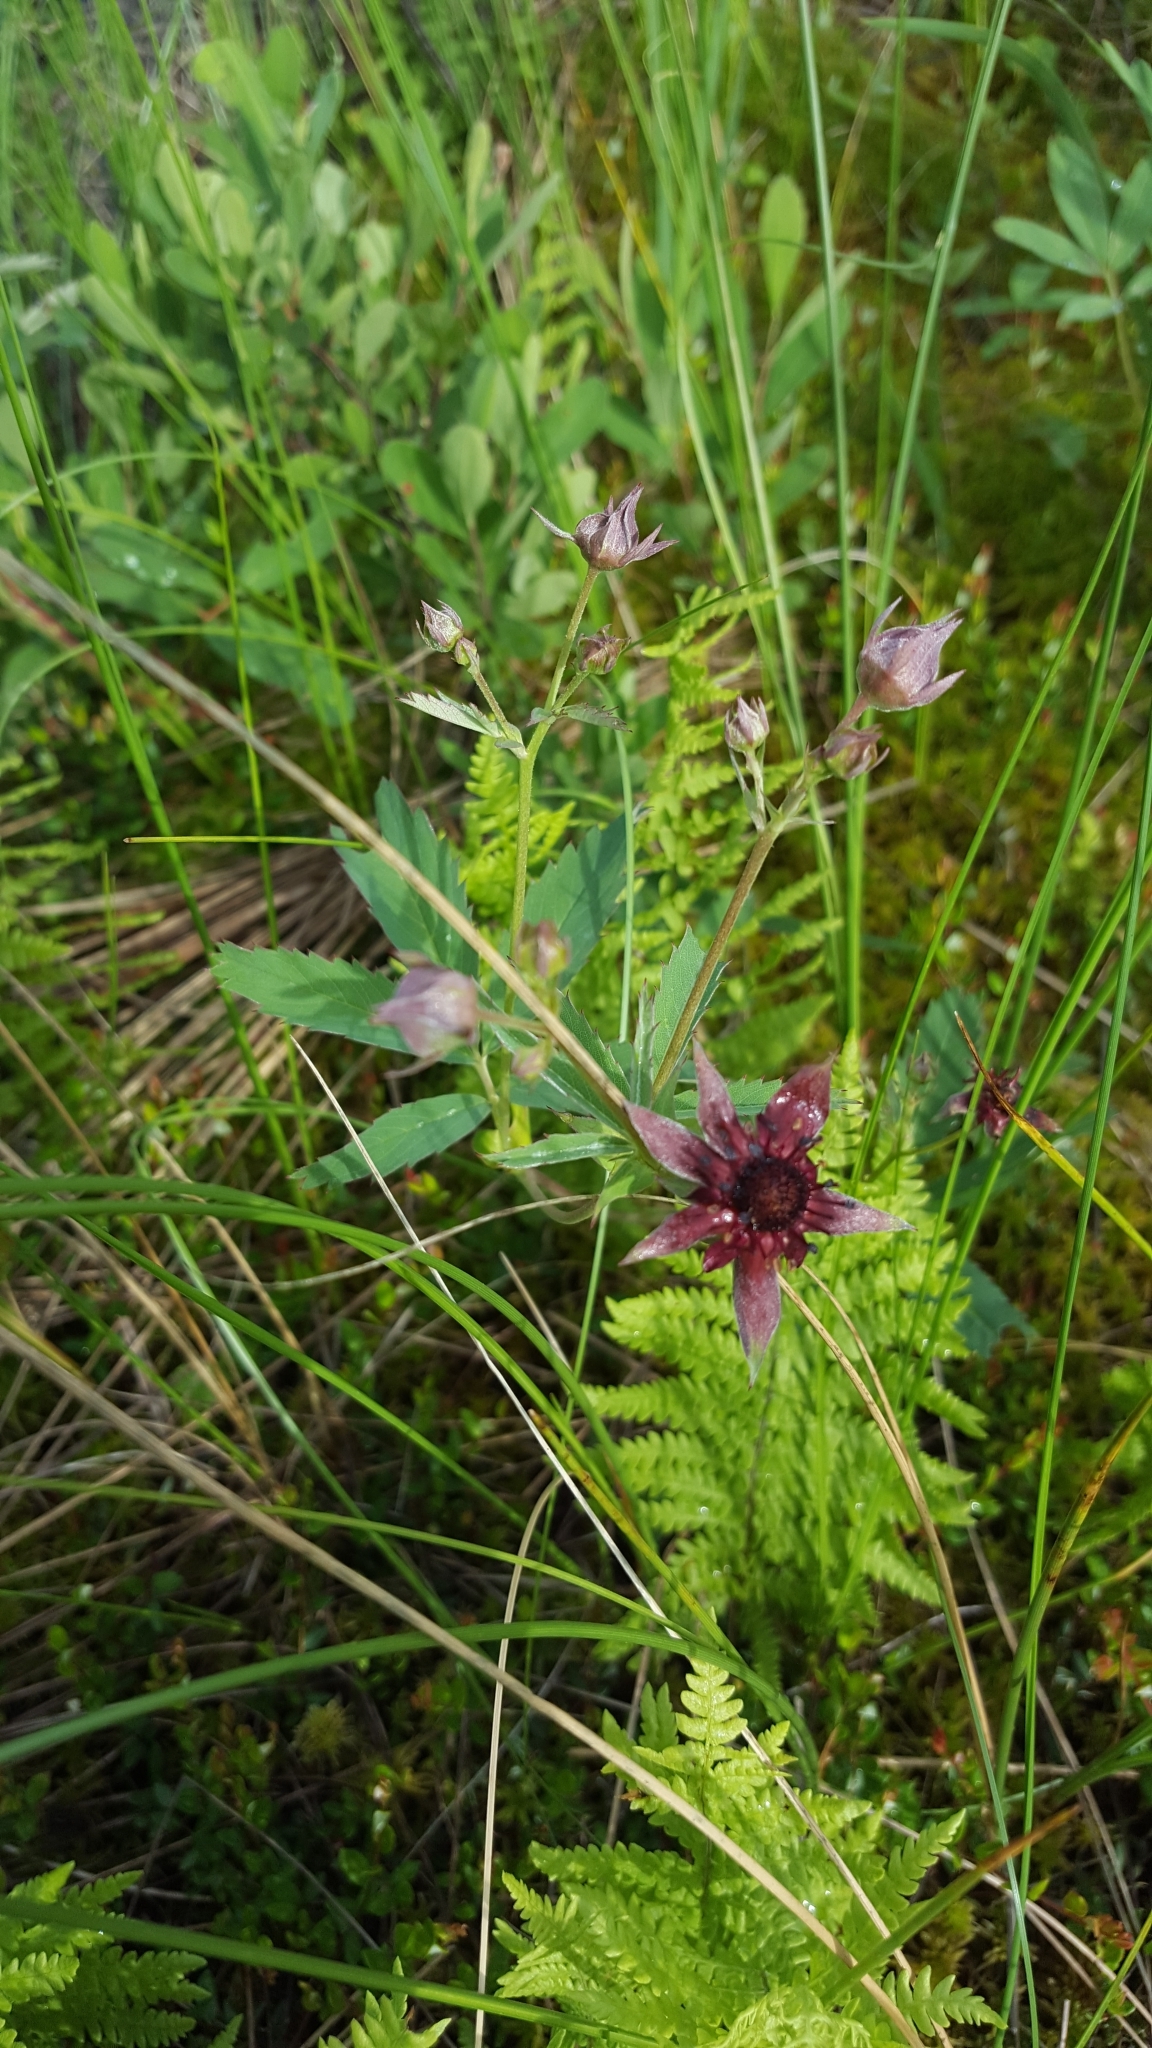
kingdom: Plantae
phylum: Tracheophyta
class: Magnoliopsida
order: Rosales
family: Rosaceae
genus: Comarum
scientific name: Comarum palustre
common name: Marsh cinquefoil
